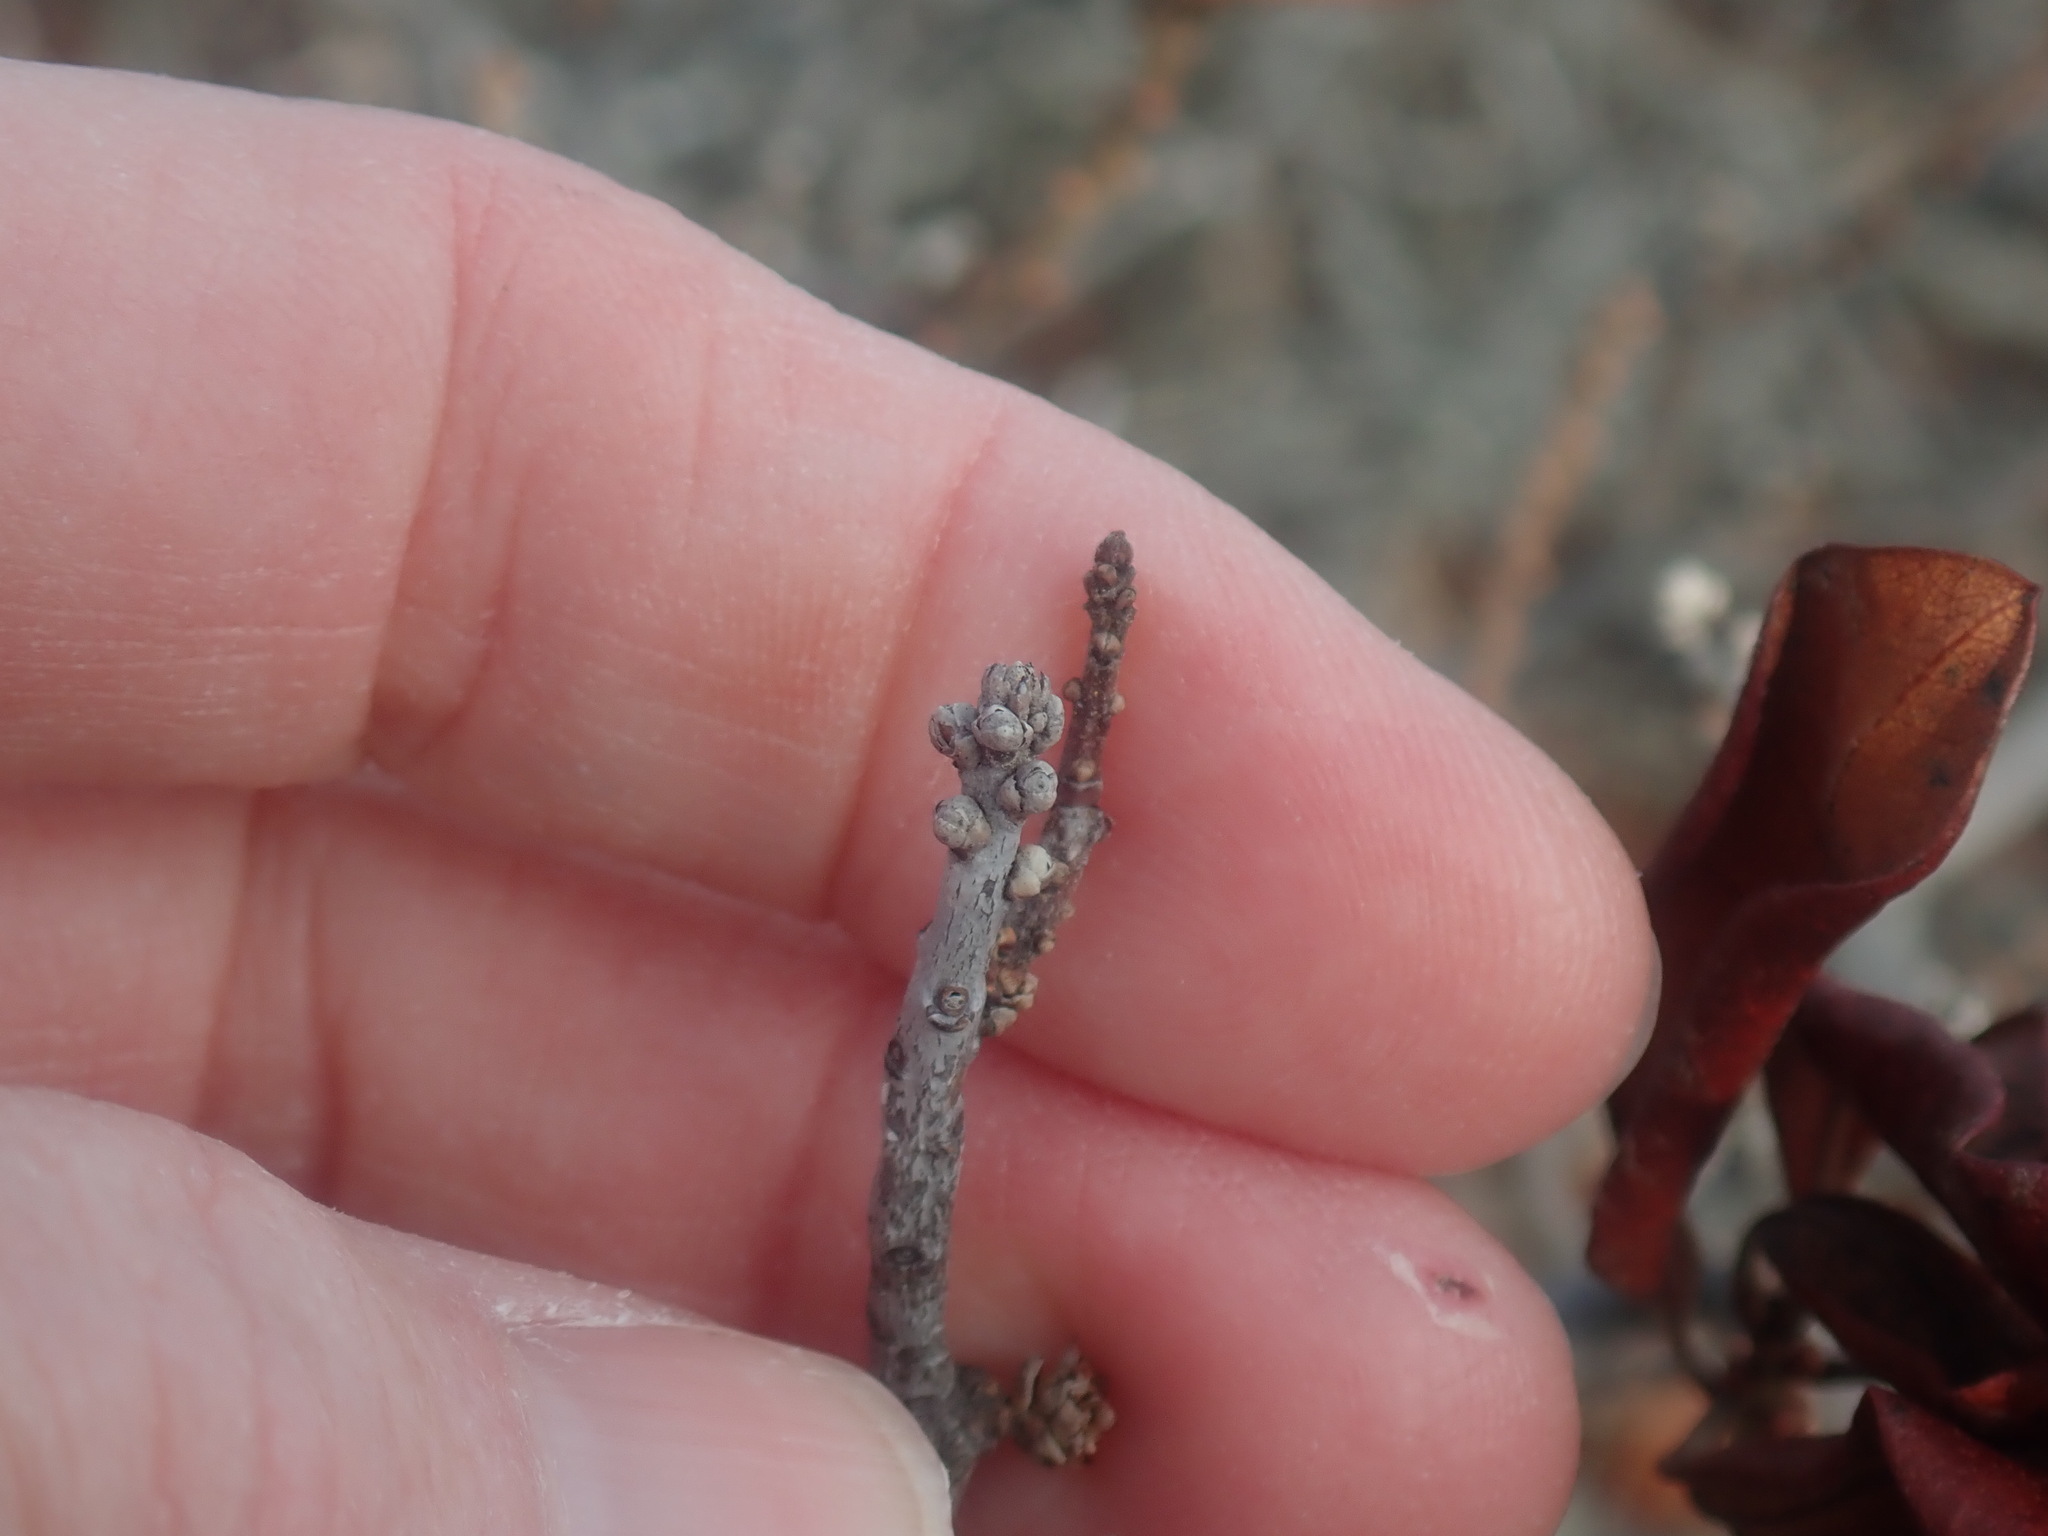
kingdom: Plantae
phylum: Tracheophyta
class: Magnoliopsida
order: Fagales
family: Myricaceae
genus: Morella
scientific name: Morella pensylvanica
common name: Northern bayberry
